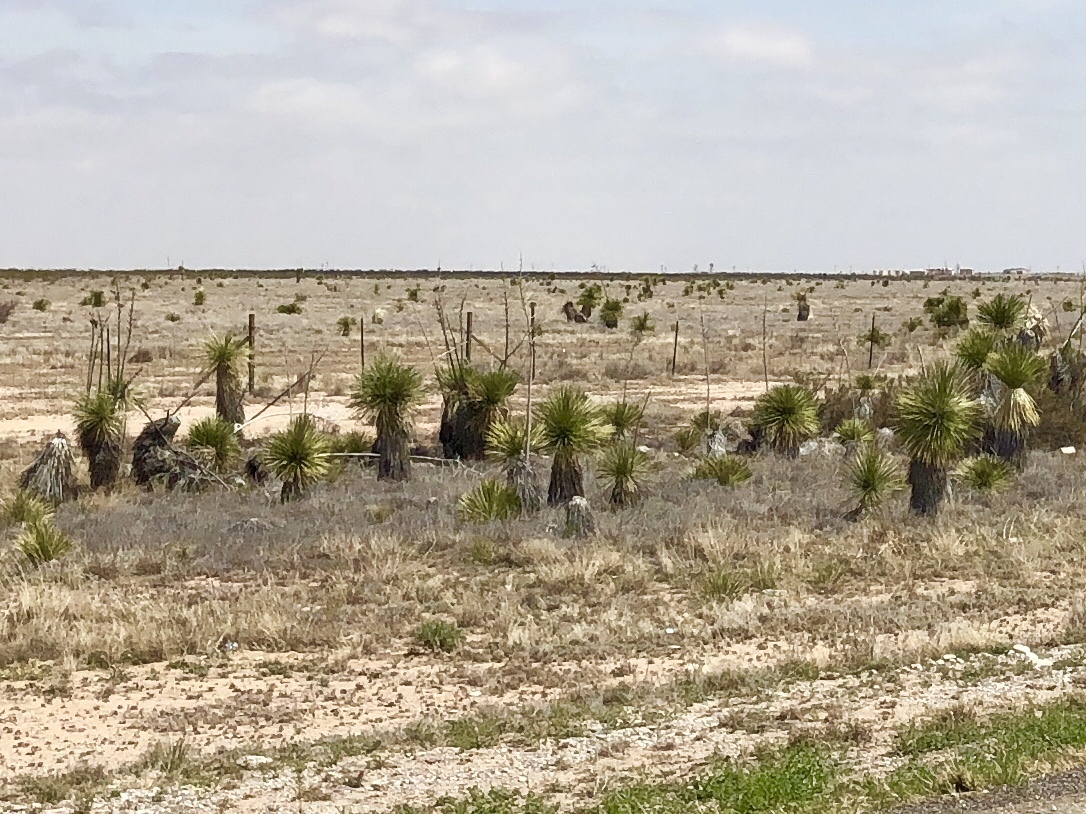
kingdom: Plantae
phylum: Tracheophyta
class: Liliopsida
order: Asparagales
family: Asparagaceae
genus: Yucca
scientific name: Yucca elata
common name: Palmella
